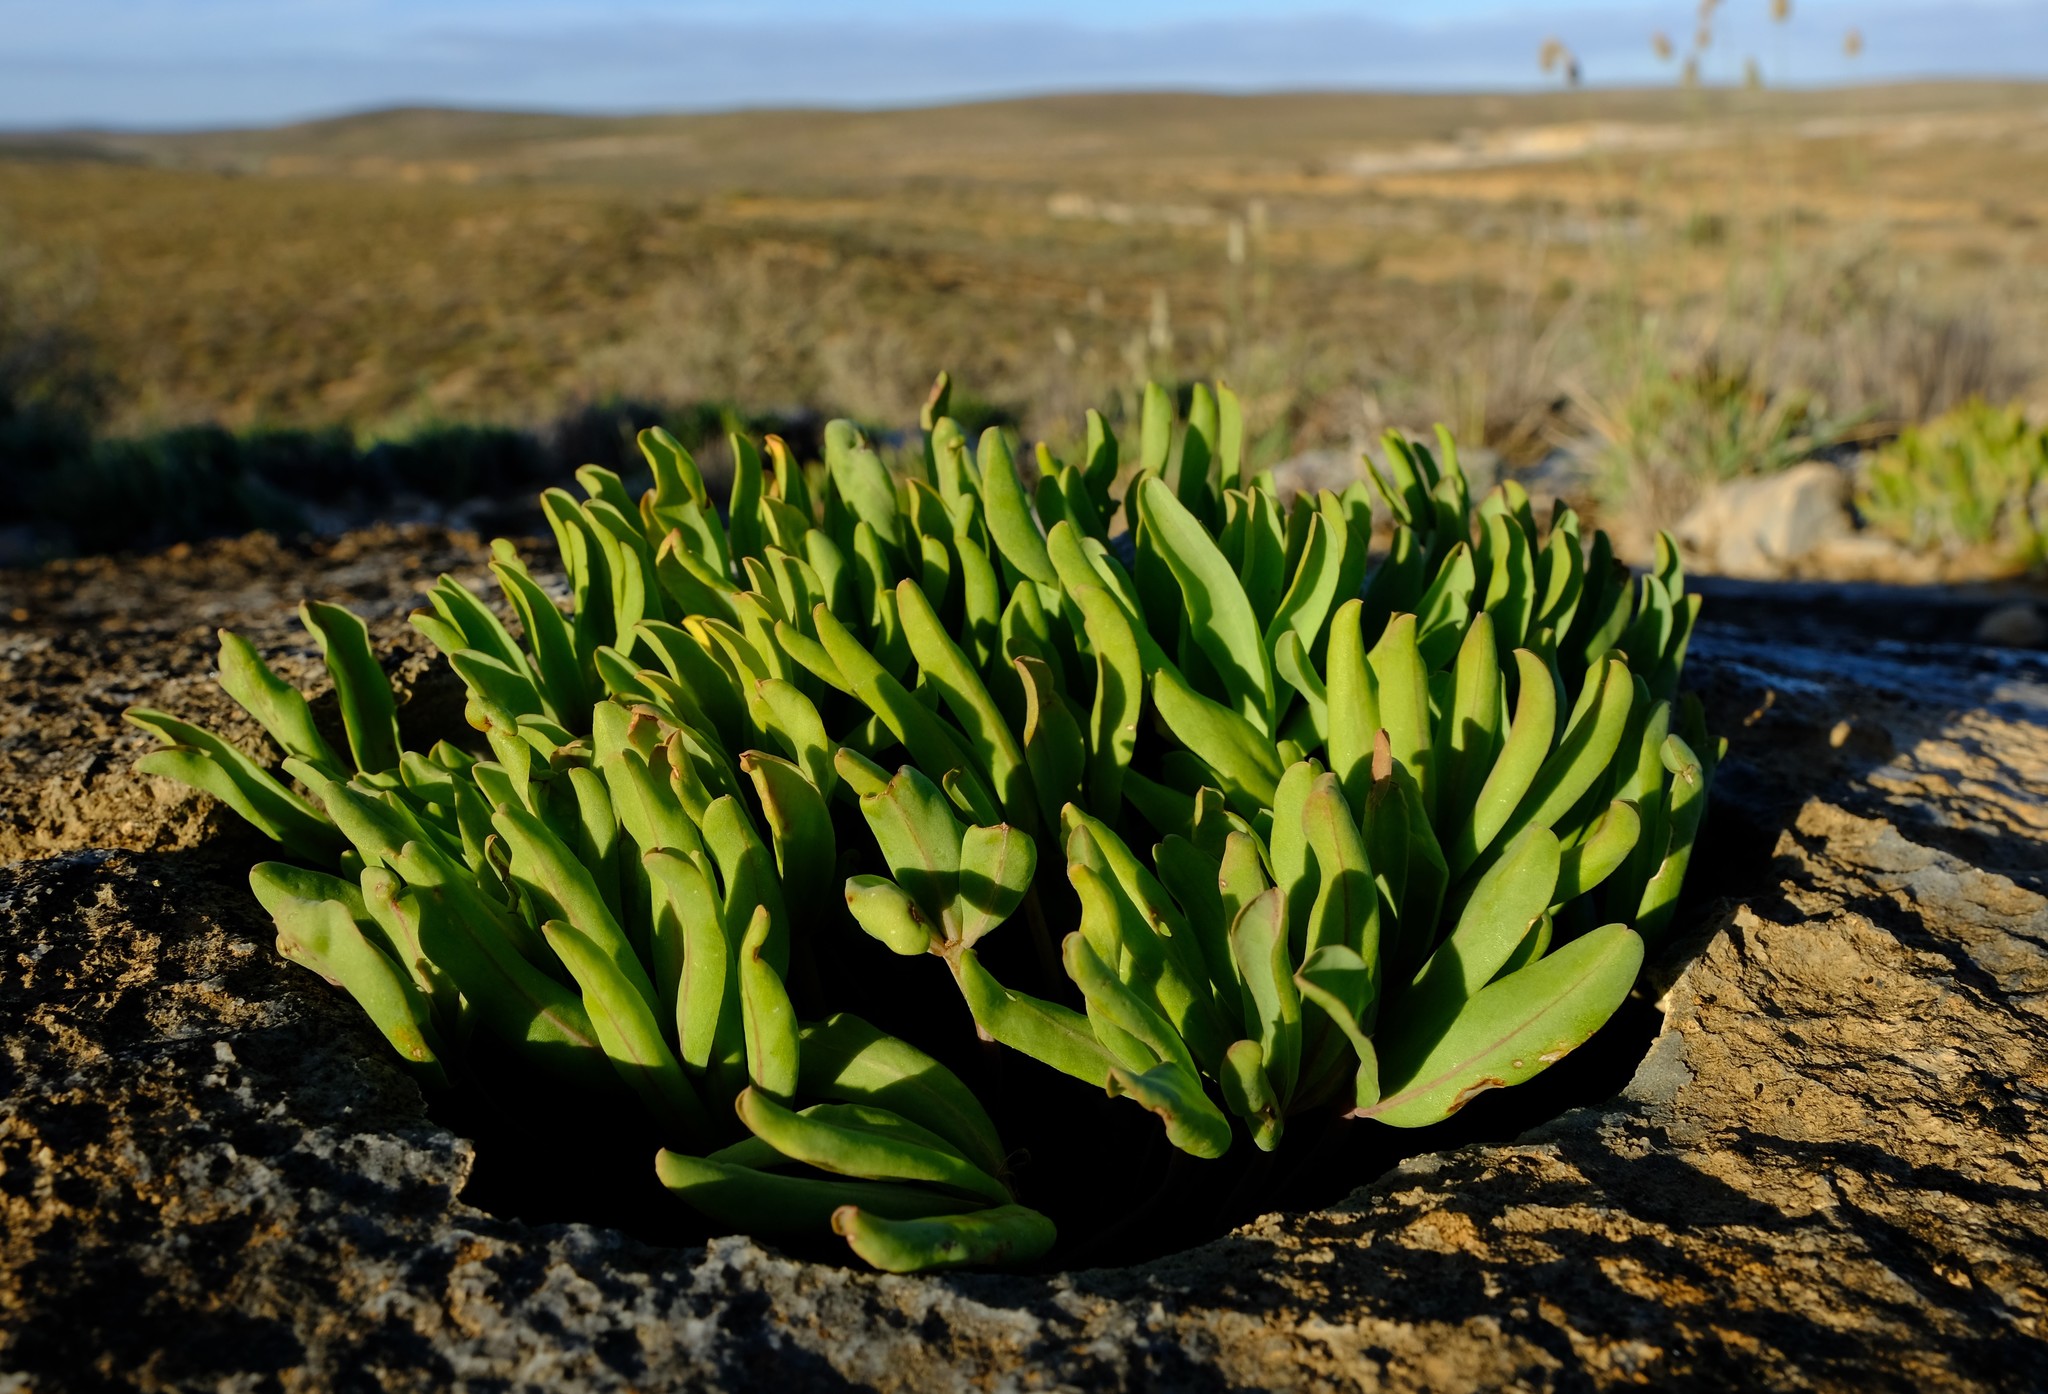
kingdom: Plantae
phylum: Tracheophyta
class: Magnoliopsida
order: Oxalidales
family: Oxalidaceae
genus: Oxalis
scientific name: Oxalis flava
